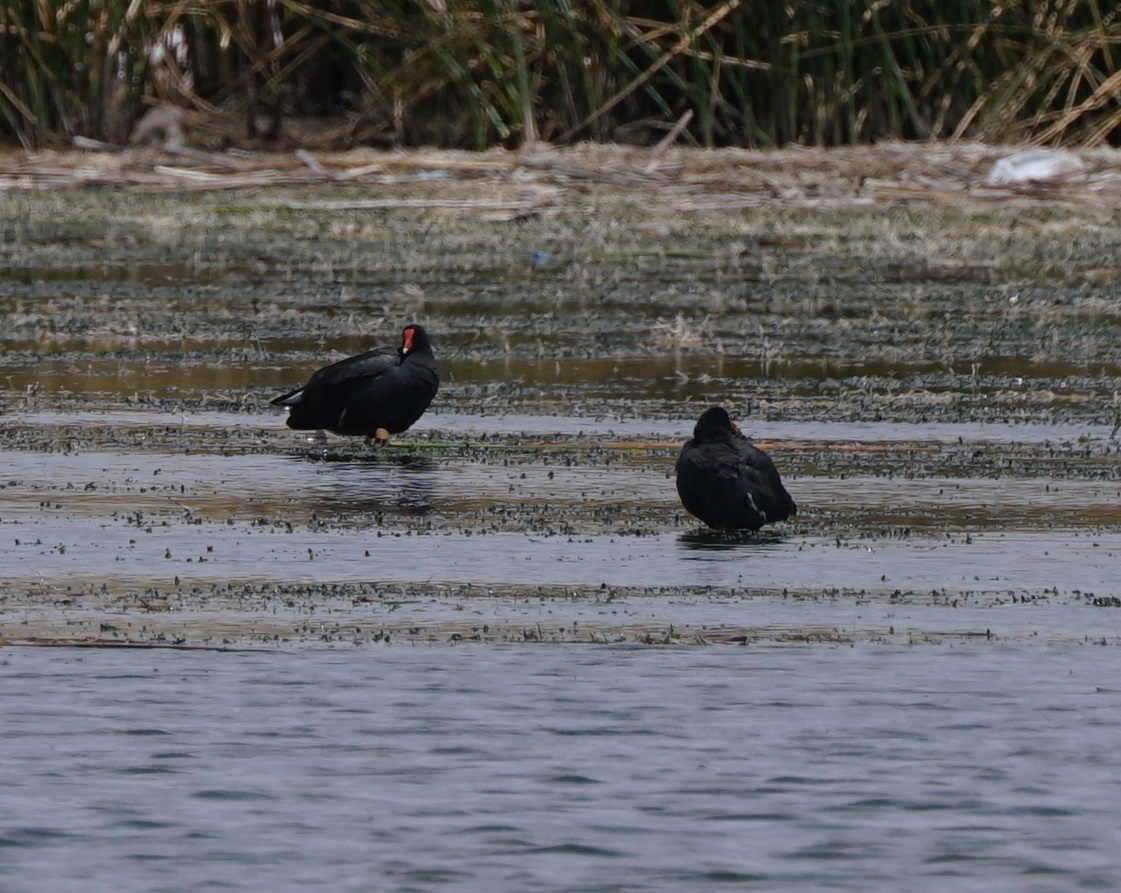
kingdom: Animalia
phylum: Chordata
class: Aves
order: Gruiformes
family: Rallidae
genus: Gallinula
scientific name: Gallinula chloropus
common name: Common moorhen
